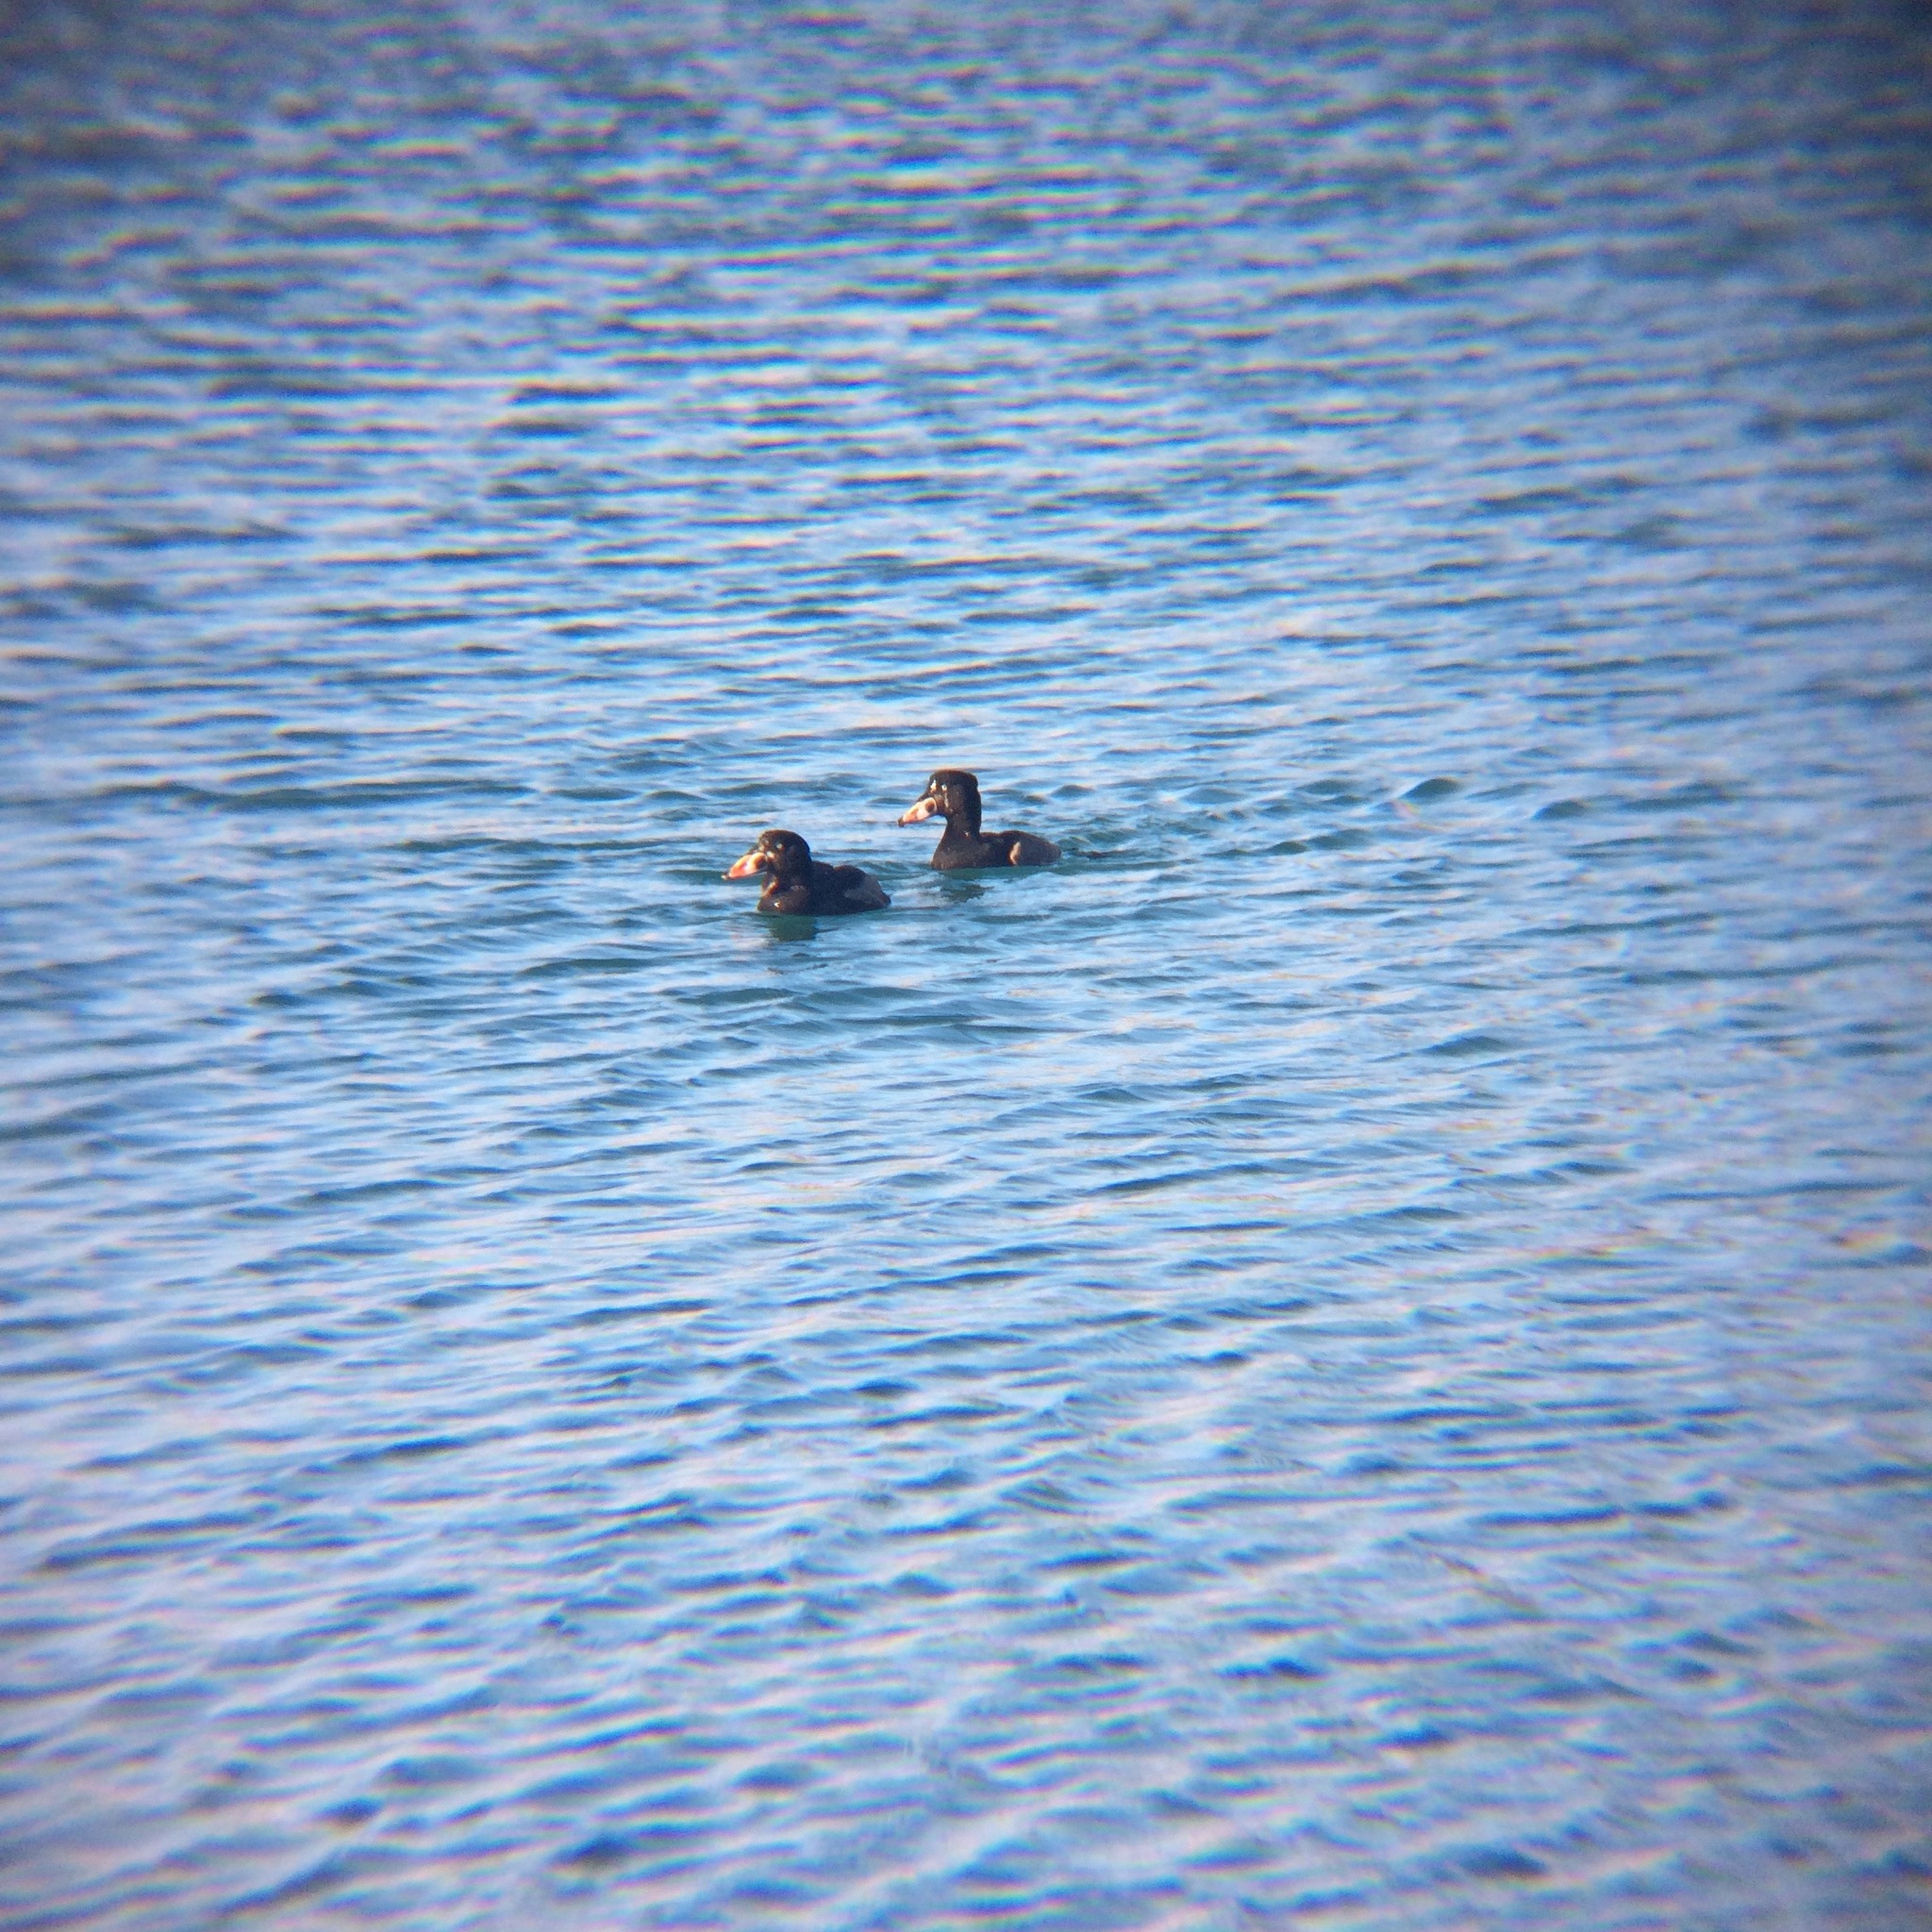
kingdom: Animalia
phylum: Chordata
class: Aves
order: Anseriformes
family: Anatidae
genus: Melanitta
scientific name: Melanitta perspicillata
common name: Surf scoter
